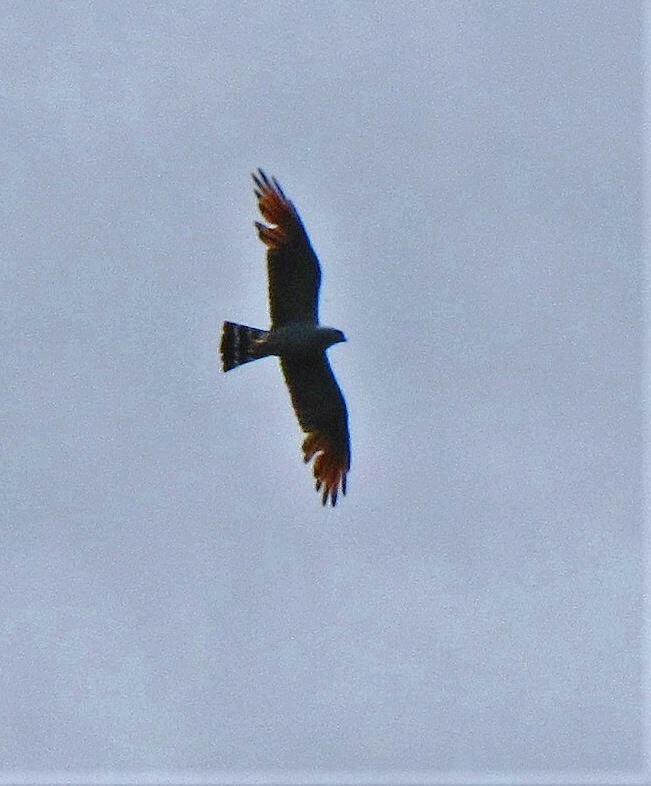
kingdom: Animalia
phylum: Chordata
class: Aves
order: Accipitriformes
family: Accipitridae
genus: Ictinia
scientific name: Ictinia plumbea
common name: Plumbeous kite
